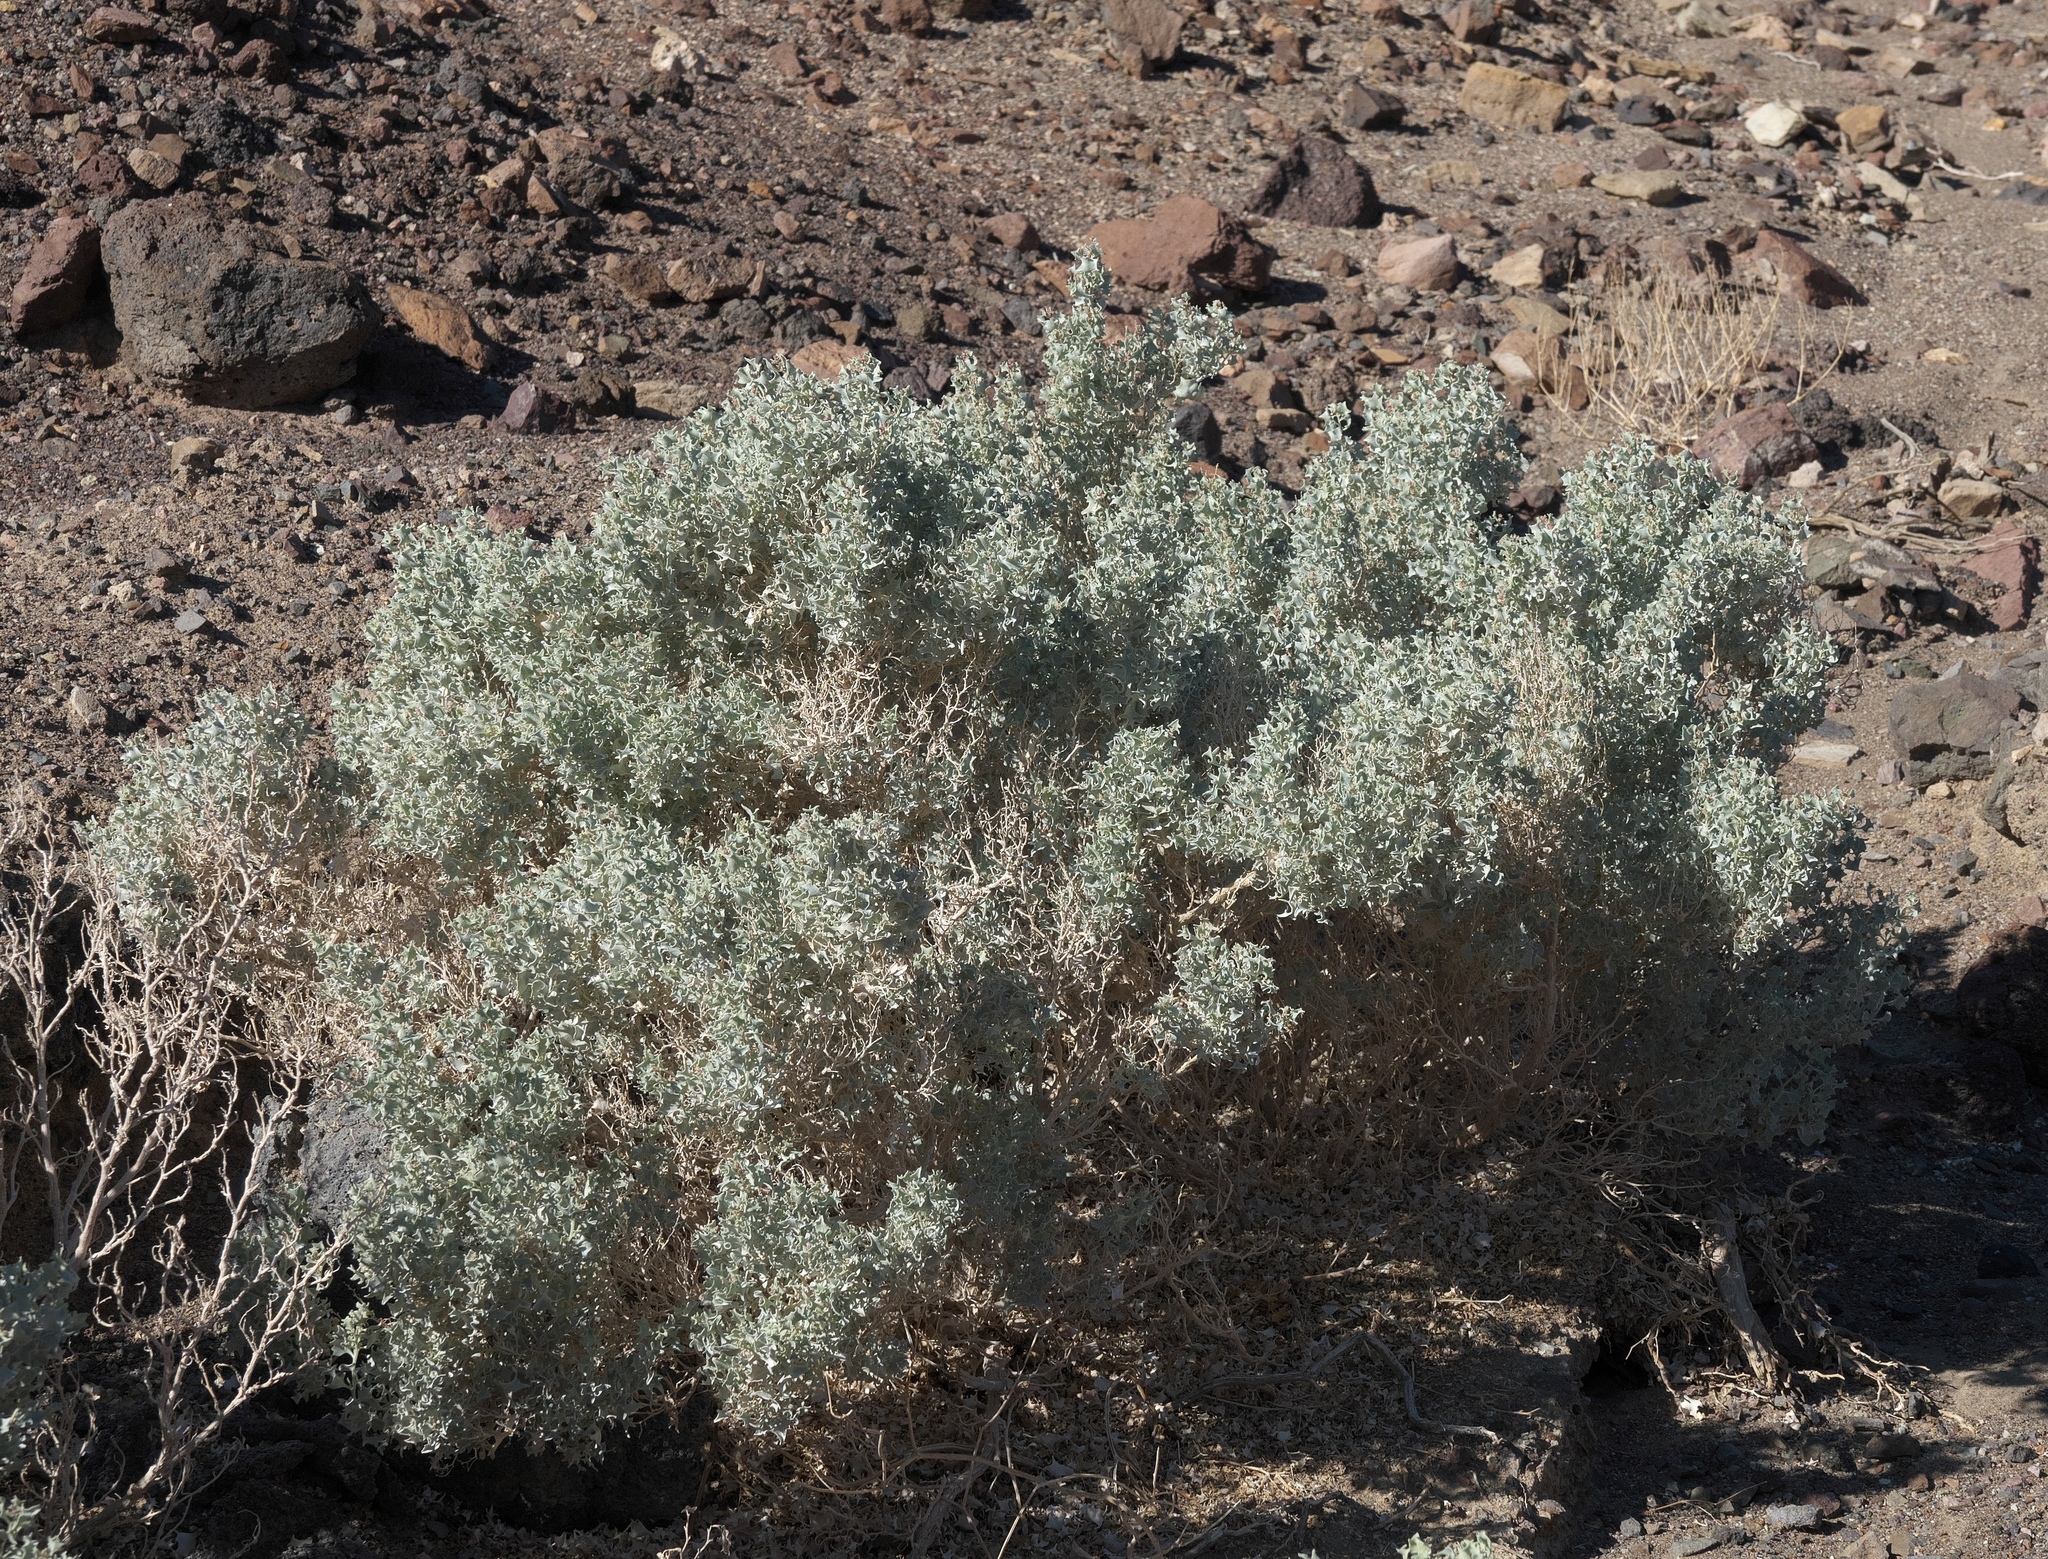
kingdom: Plantae
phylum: Tracheophyta
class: Magnoliopsida
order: Caryophyllales
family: Amaranthaceae
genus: Atriplex
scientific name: Atriplex hymenelytra
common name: Desert-holly
